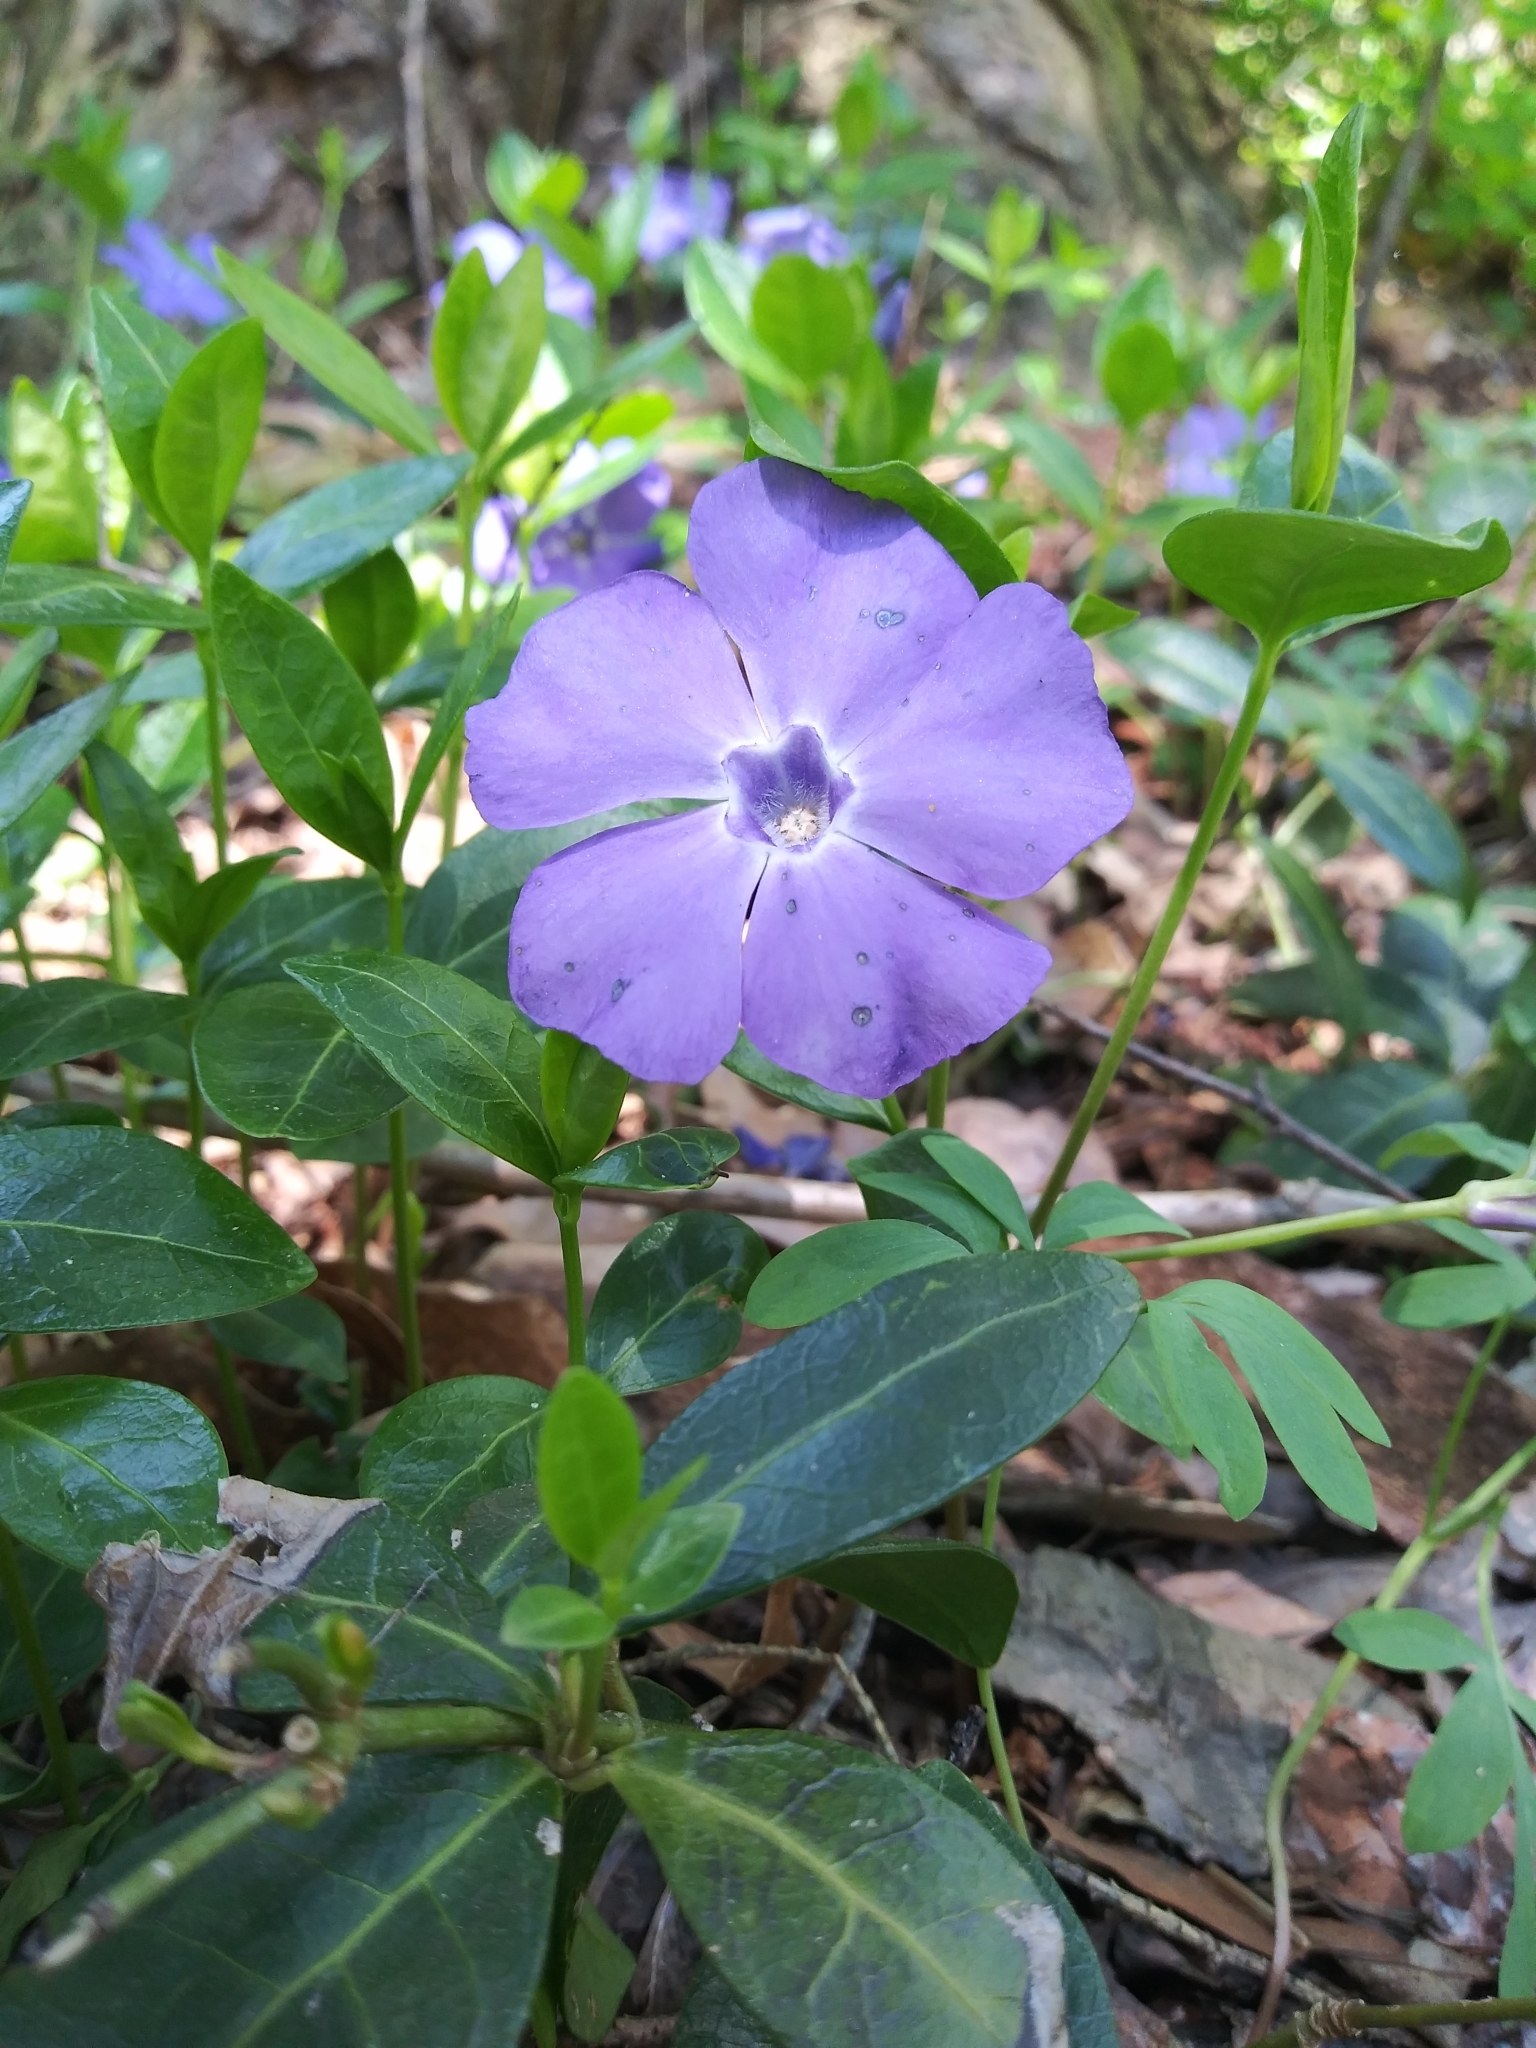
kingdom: Plantae
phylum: Tracheophyta
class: Magnoliopsida
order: Gentianales
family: Apocynaceae
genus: Vinca
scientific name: Vinca minor
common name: Lesser periwinkle
